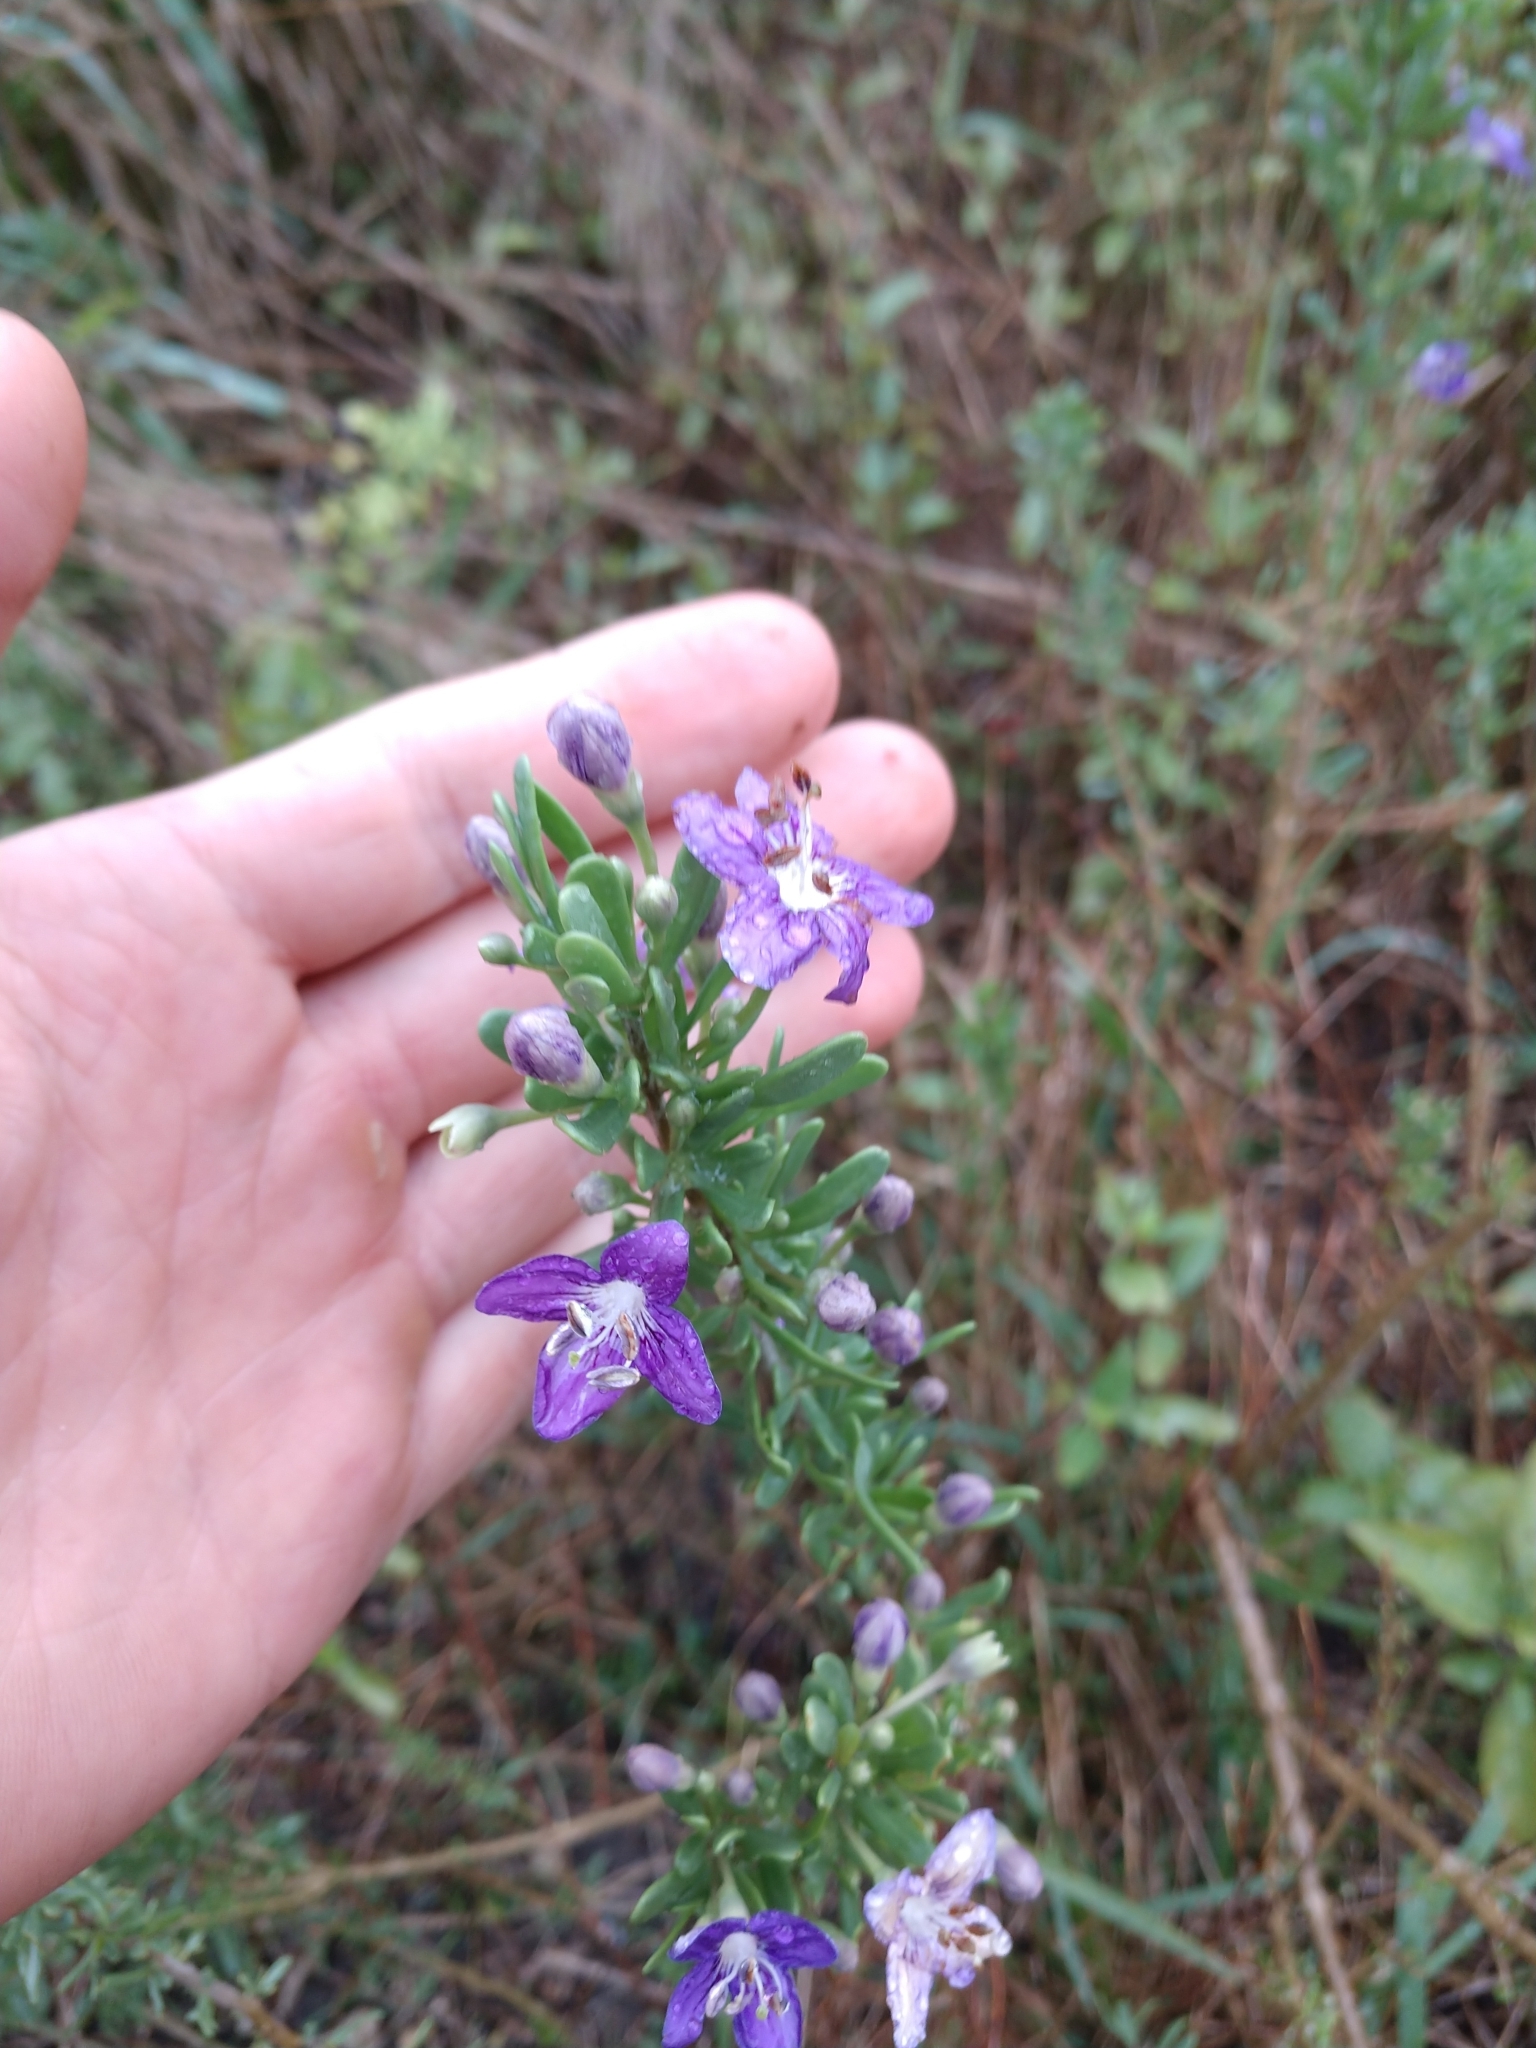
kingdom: Plantae
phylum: Tracheophyta
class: Magnoliopsida
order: Solanales
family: Solanaceae
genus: Lycium
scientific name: Lycium carolinianum
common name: Christmasberry
